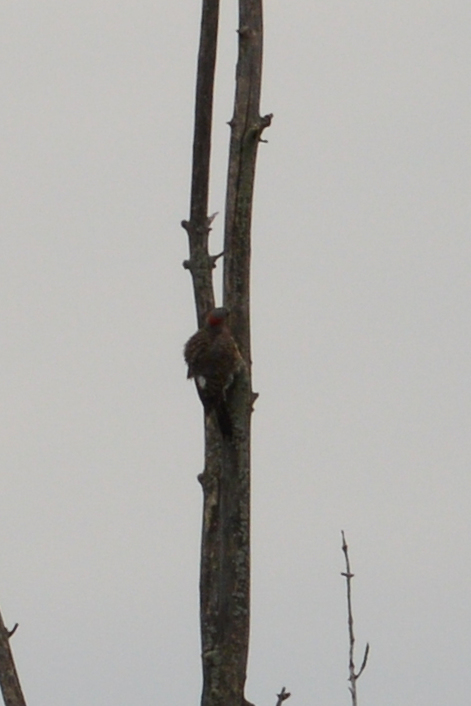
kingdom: Animalia
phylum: Chordata
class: Aves
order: Piciformes
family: Picidae
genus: Colaptes
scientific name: Colaptes auratus
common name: Northern flicker
